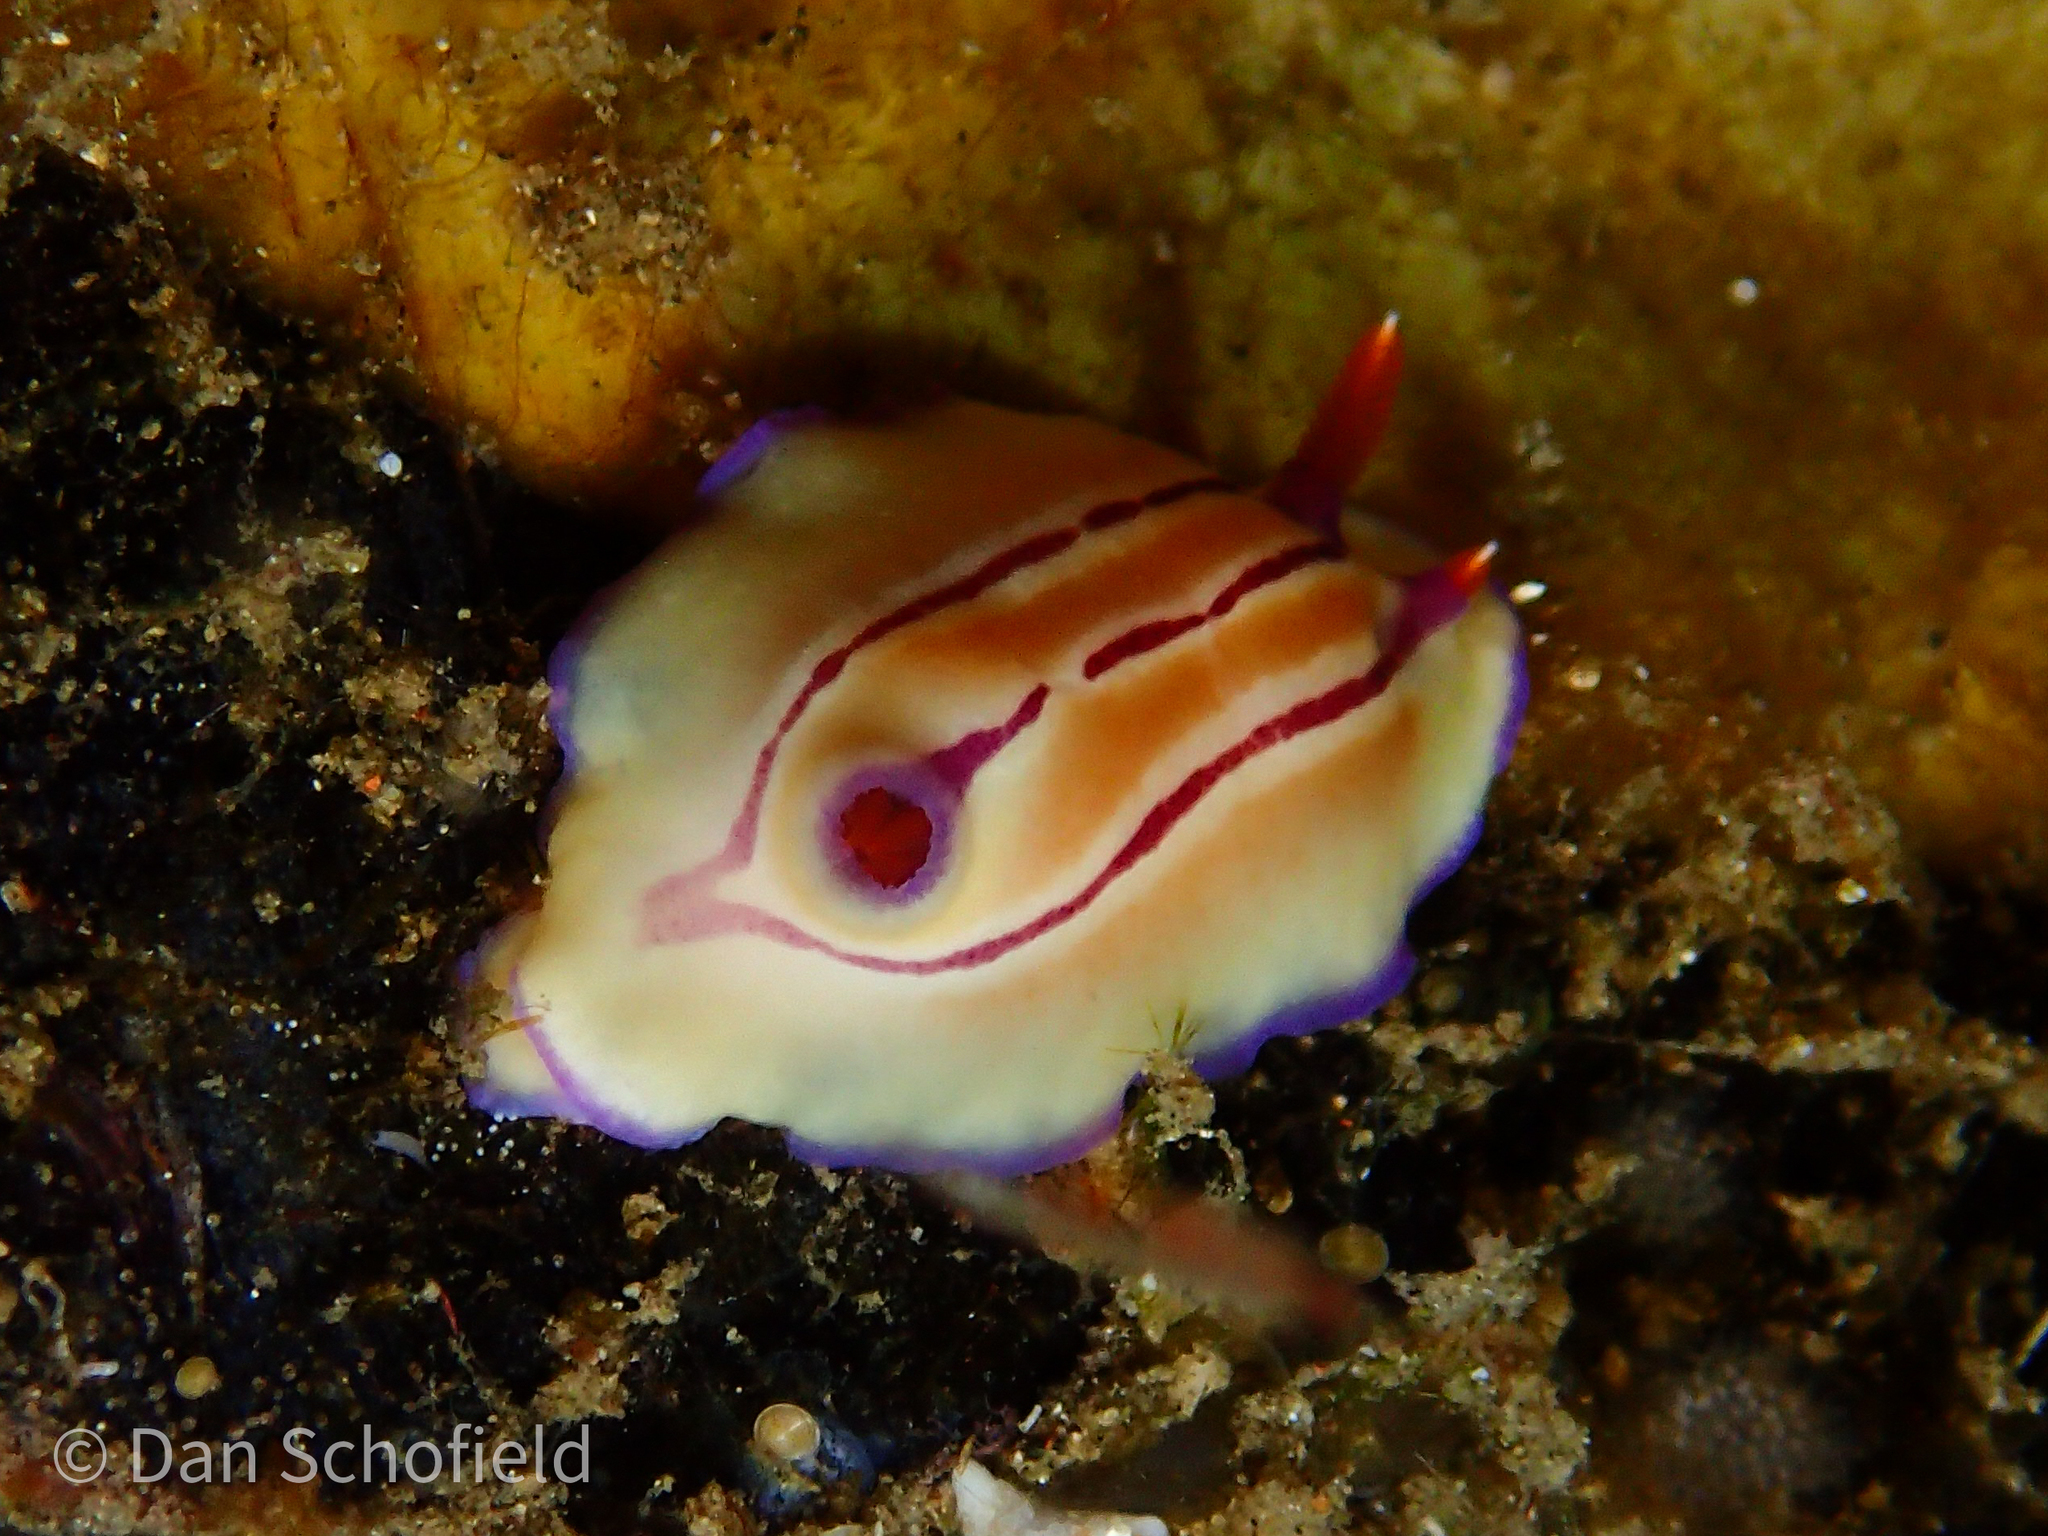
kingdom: Animalia
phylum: Mollusca
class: Gastropoda
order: Nudibranchia
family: Chromodorididae
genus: Hypselodoris
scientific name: Hypselodoris emma
